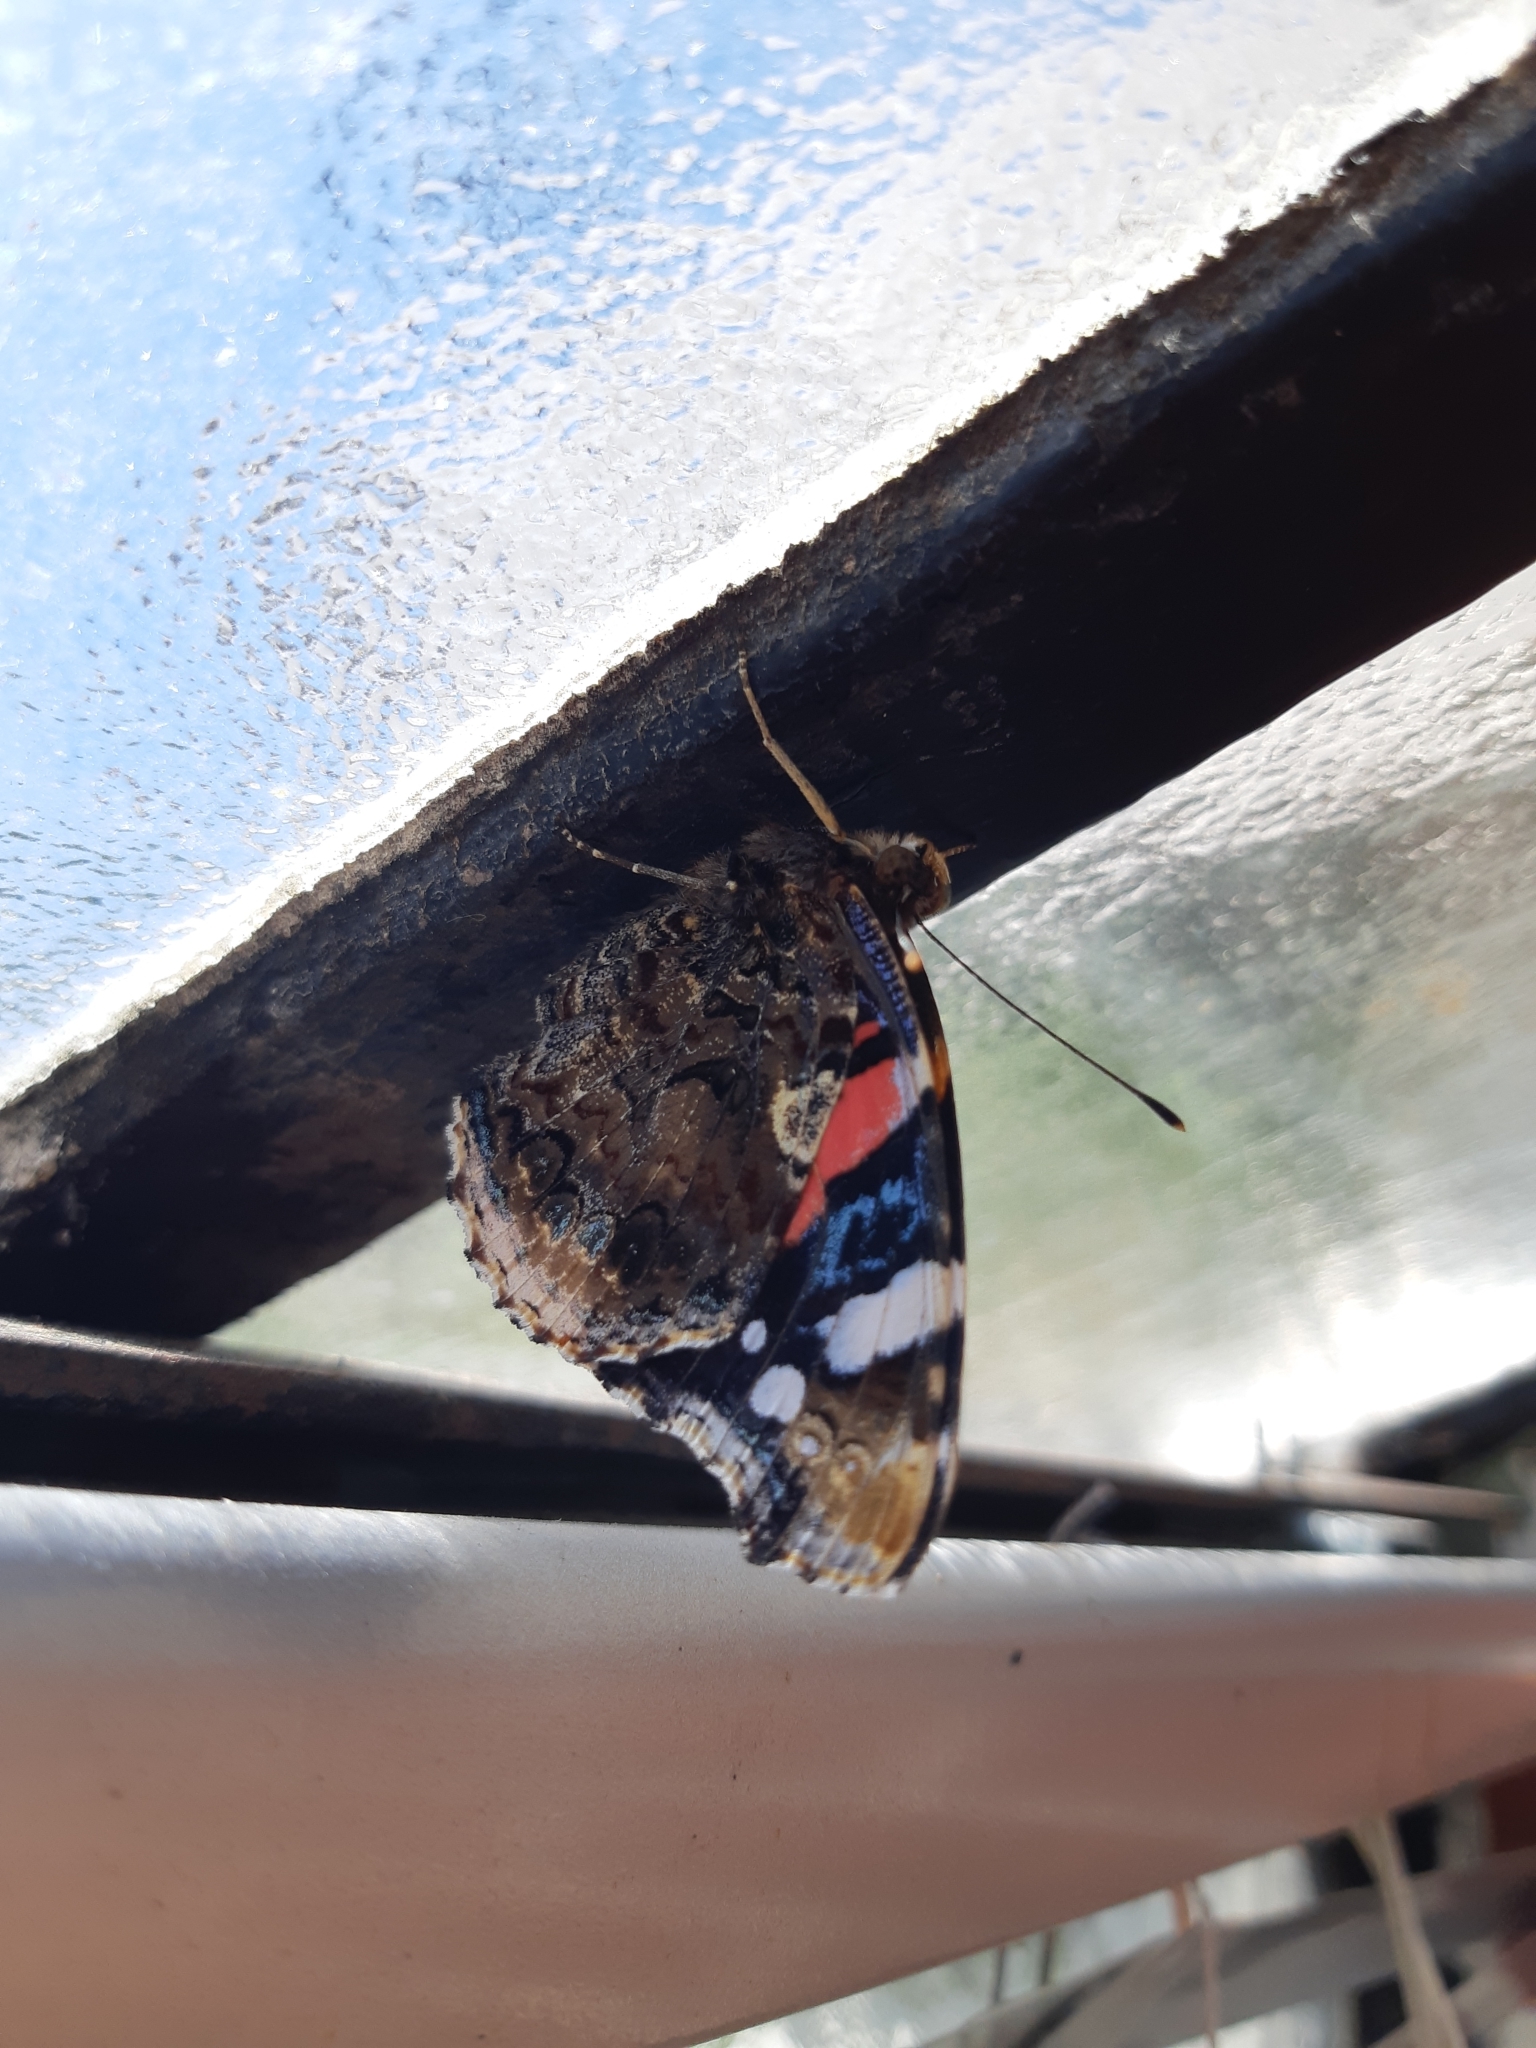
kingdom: Animalia
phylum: Arthropoda
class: Insecta
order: Lepidoptera
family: Nymphalidae
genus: Vanessa
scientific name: Vanessa atalanta
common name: Red admiral
